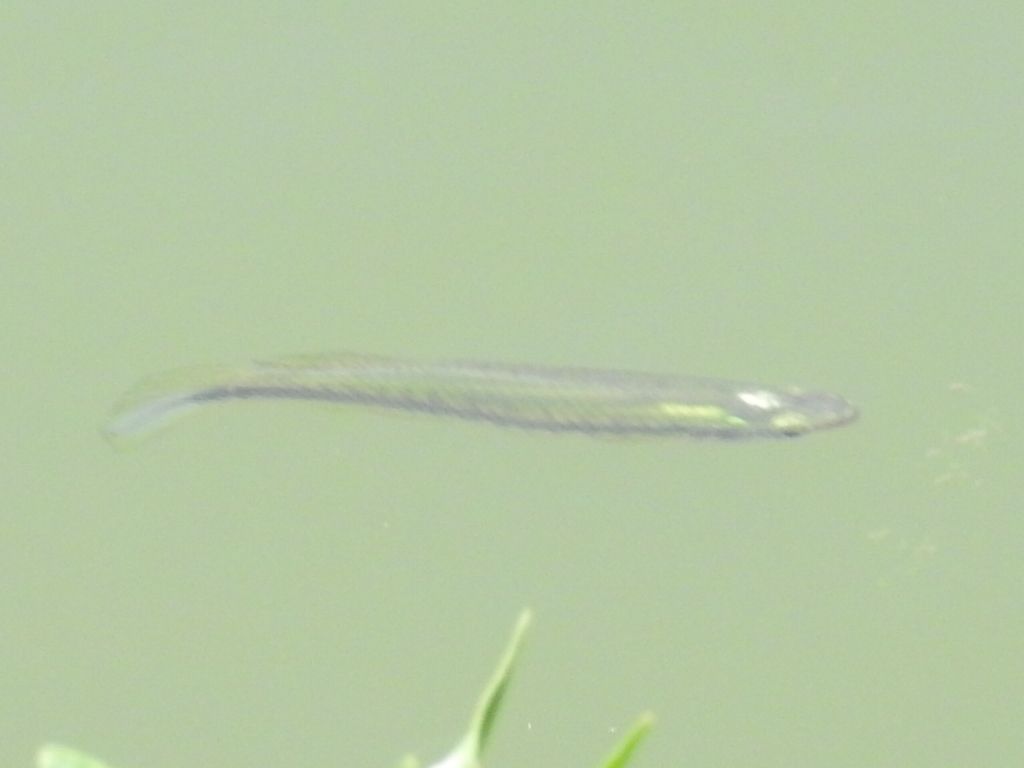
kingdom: Animalia
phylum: Chordata
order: Cyprinodontiformes
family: Fundulidae
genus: Fundulus
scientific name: Fundulus notatus
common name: Blackstripe topminnow
